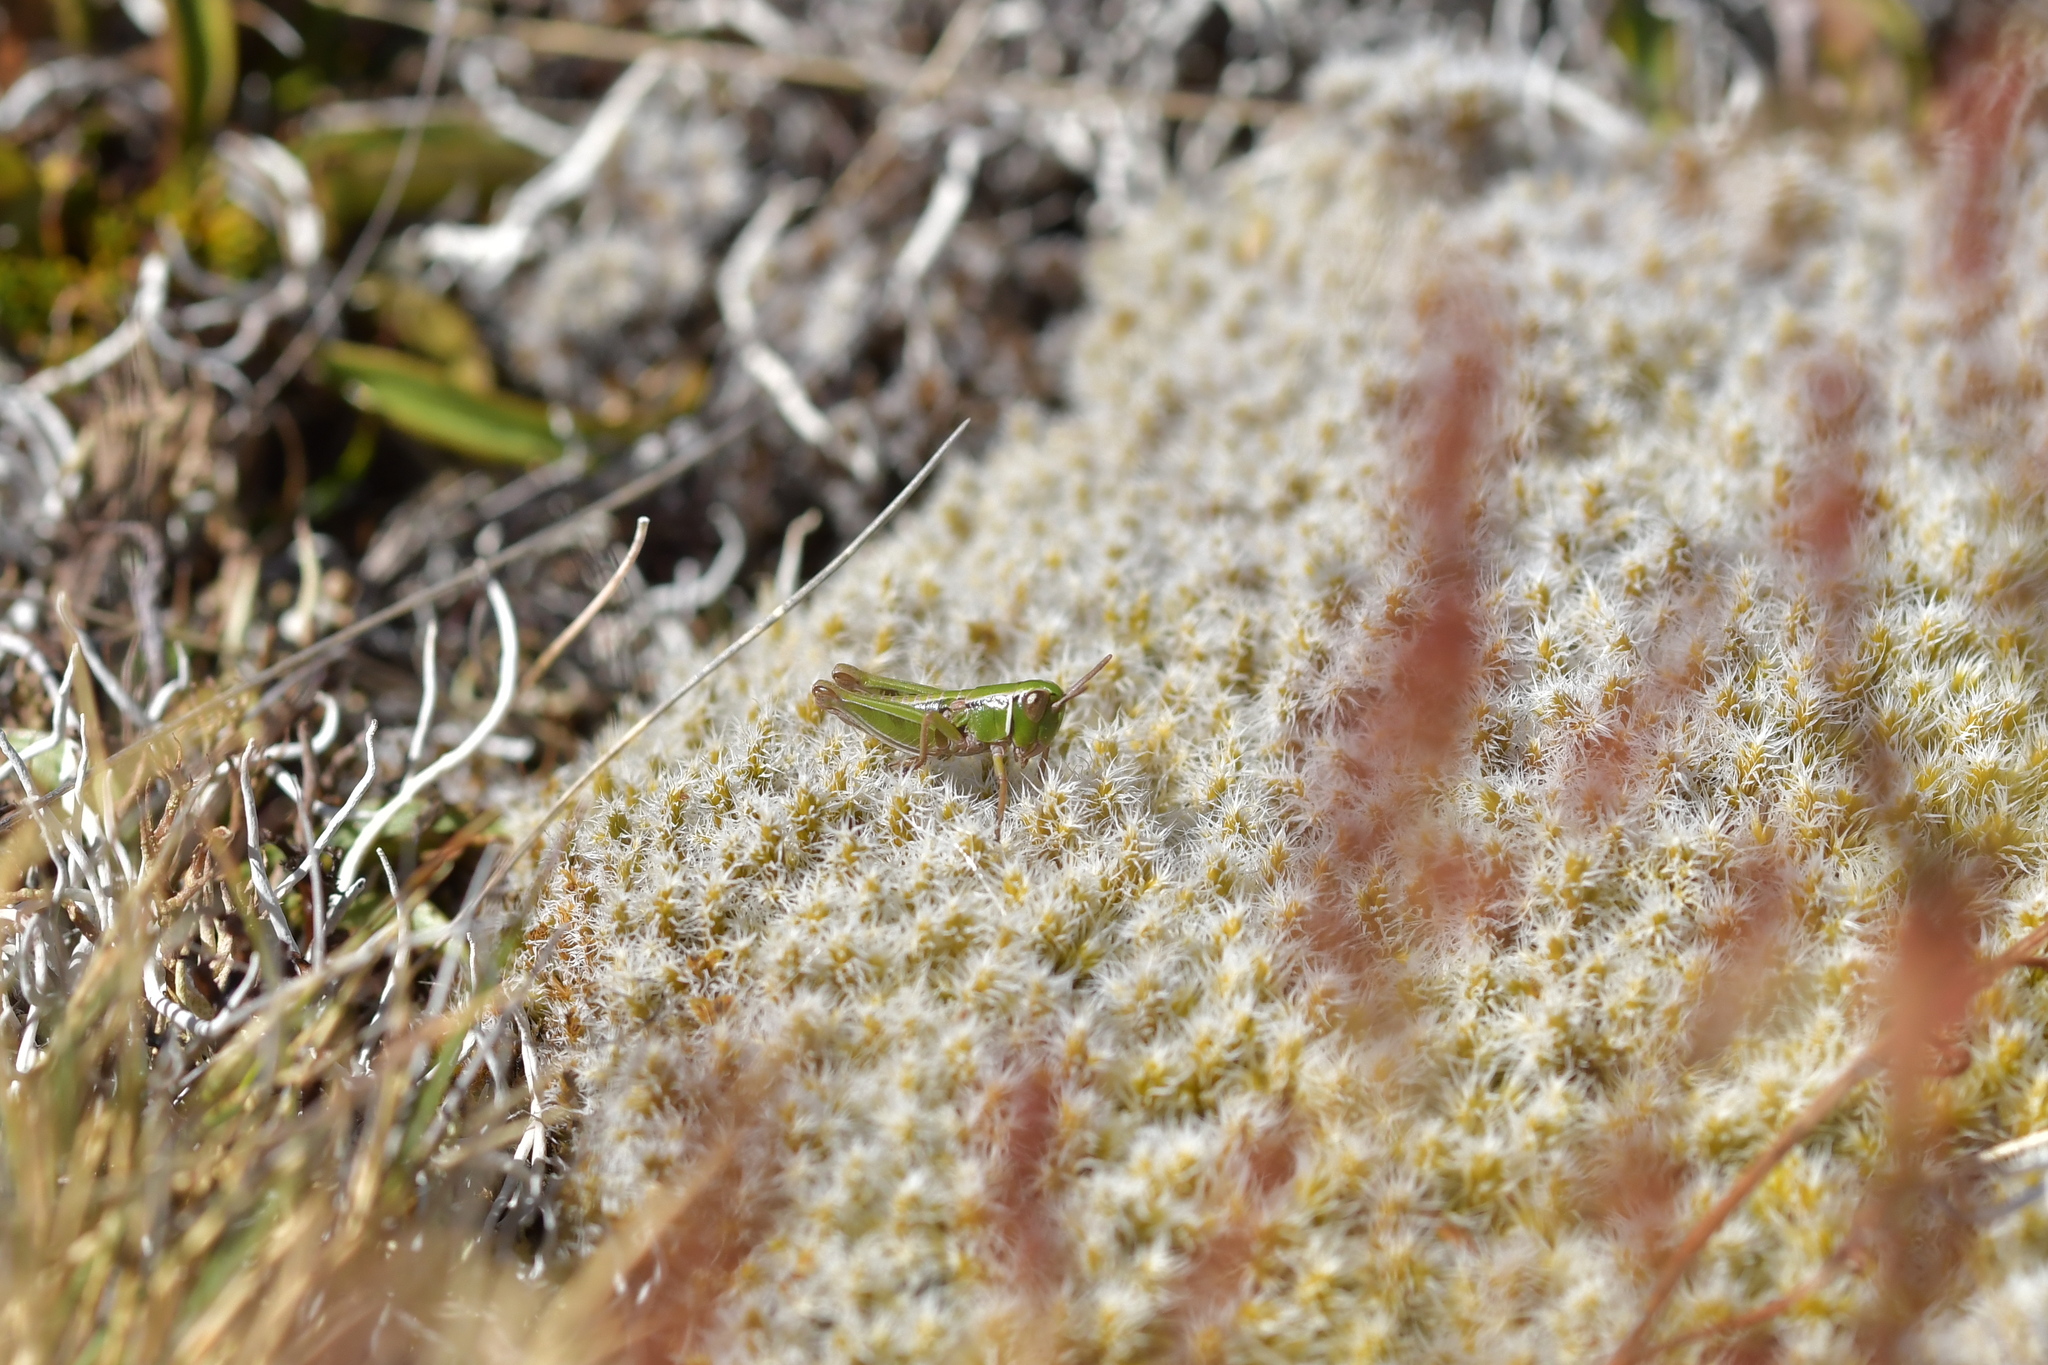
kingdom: Animalia
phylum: Arthropoda
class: Insecta
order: Orthoptera
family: Acrididae
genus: Sigaus
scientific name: Sigaus
